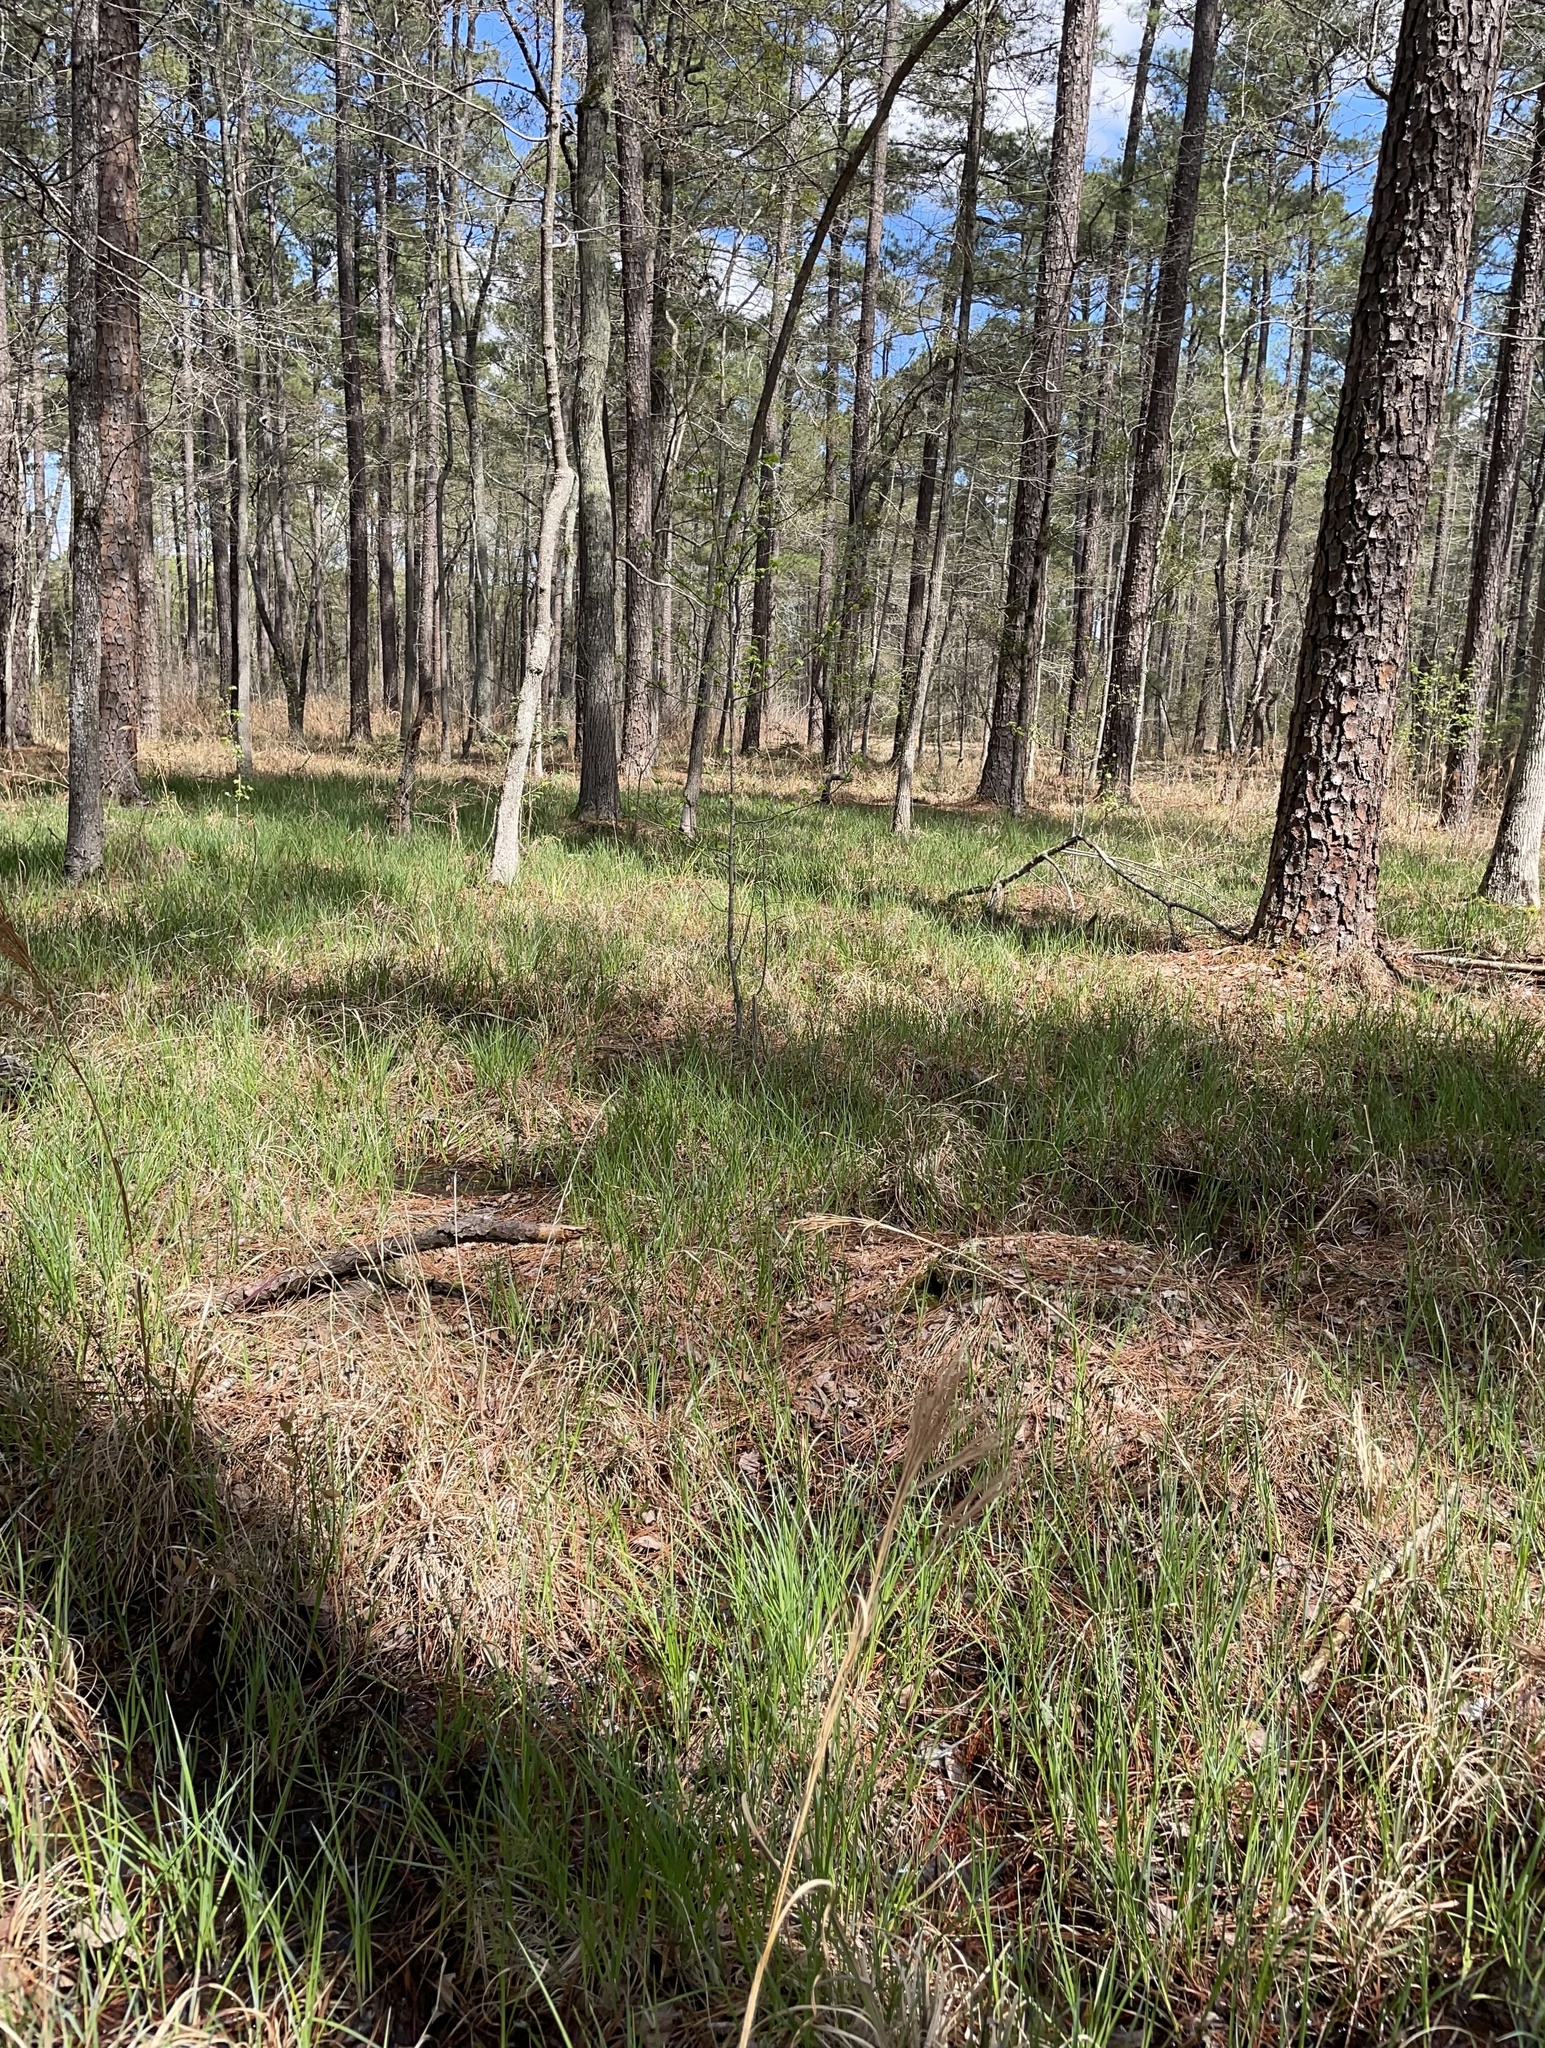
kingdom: Plantae
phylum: Tracheophyta
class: Liliopsida
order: Poales
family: Cyperaceae
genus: Carex
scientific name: Carex barrattii
